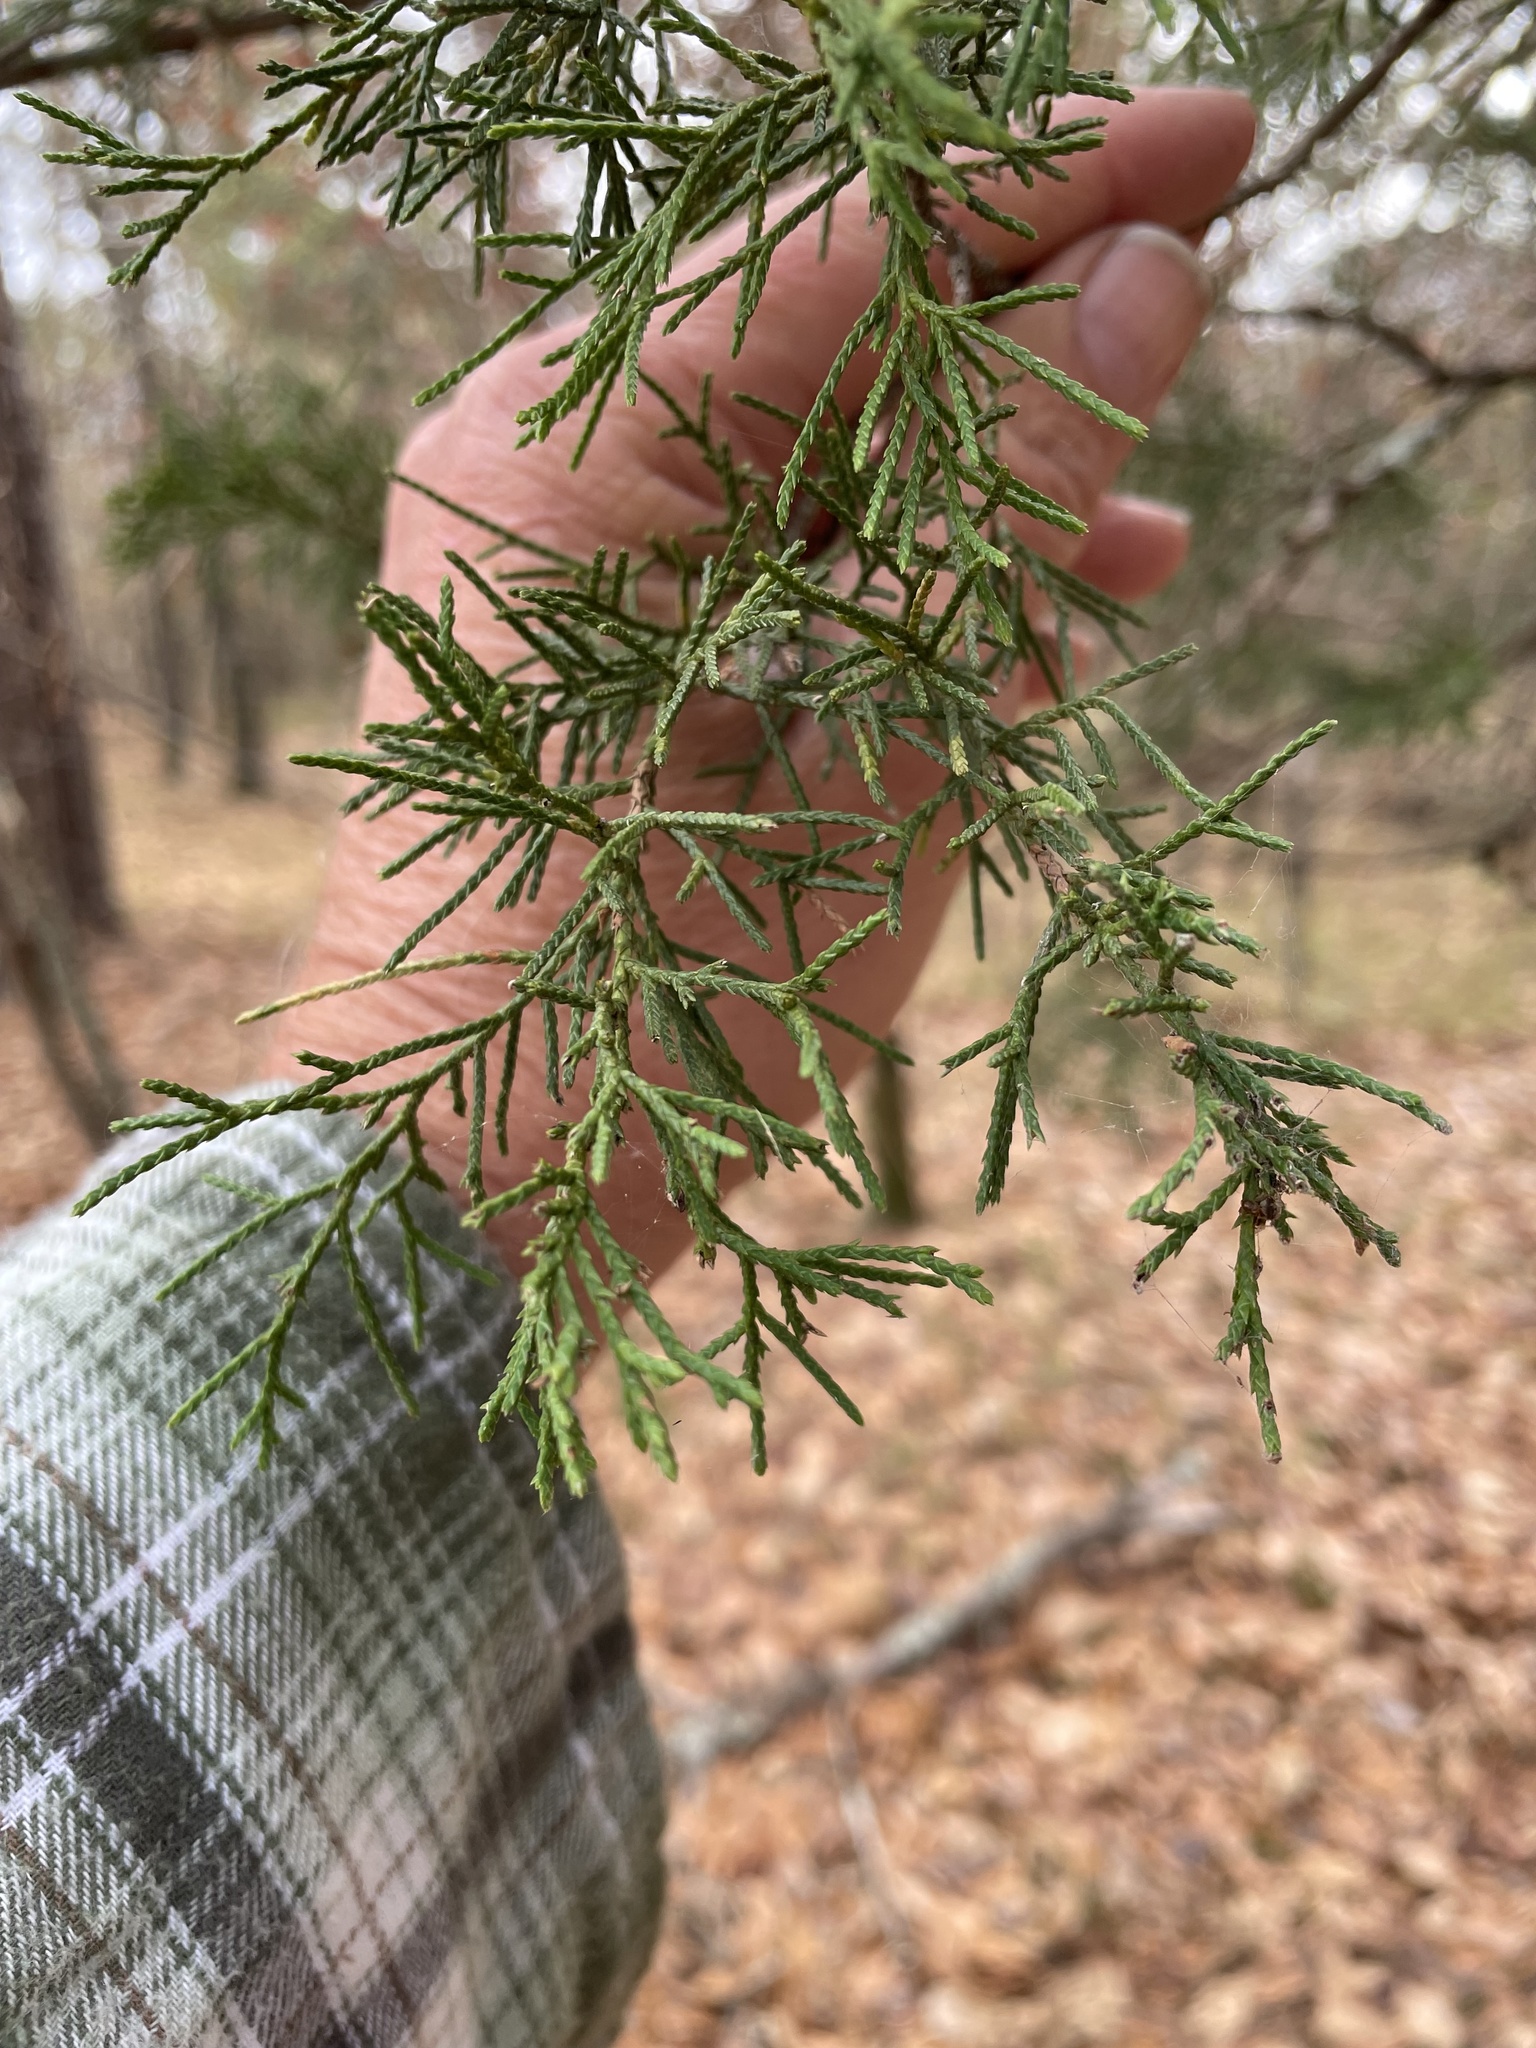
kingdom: Plantae
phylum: Tracheophyta
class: Pinopsida
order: Pinales
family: Cupressaceae
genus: Juniperus
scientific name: Juniperus virginiana
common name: Red juniper
